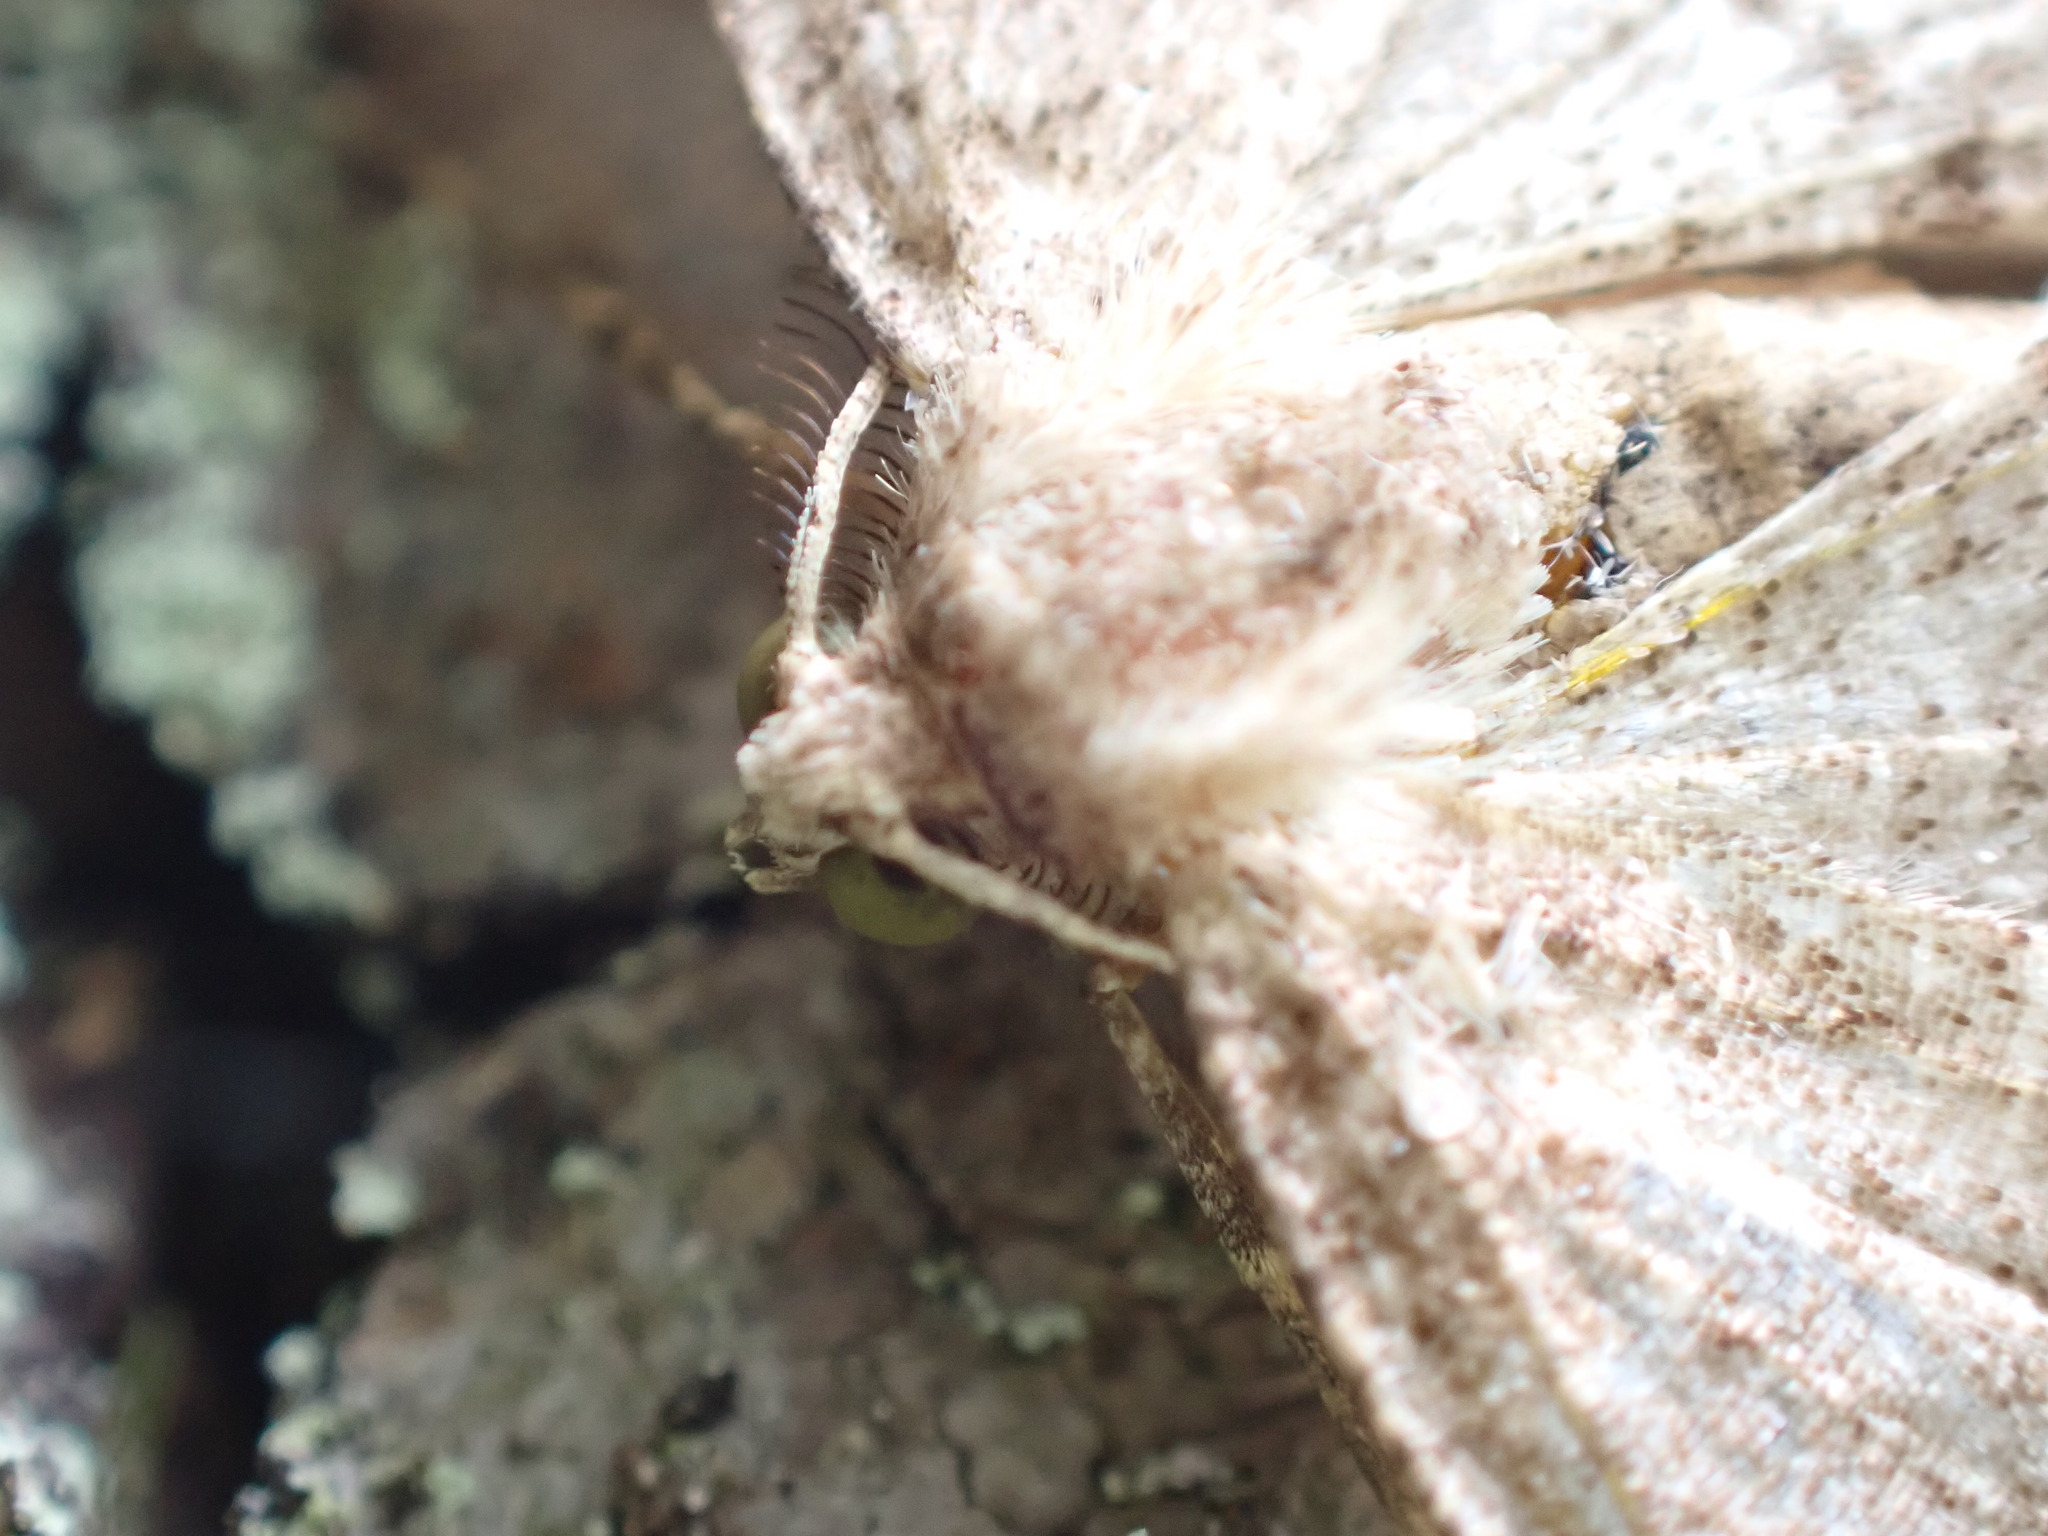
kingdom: Animalia
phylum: Arthropoda
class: Insecta
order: Lepidoptera
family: Geometridae
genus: Melanolophia
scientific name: Melanolophia imitata
